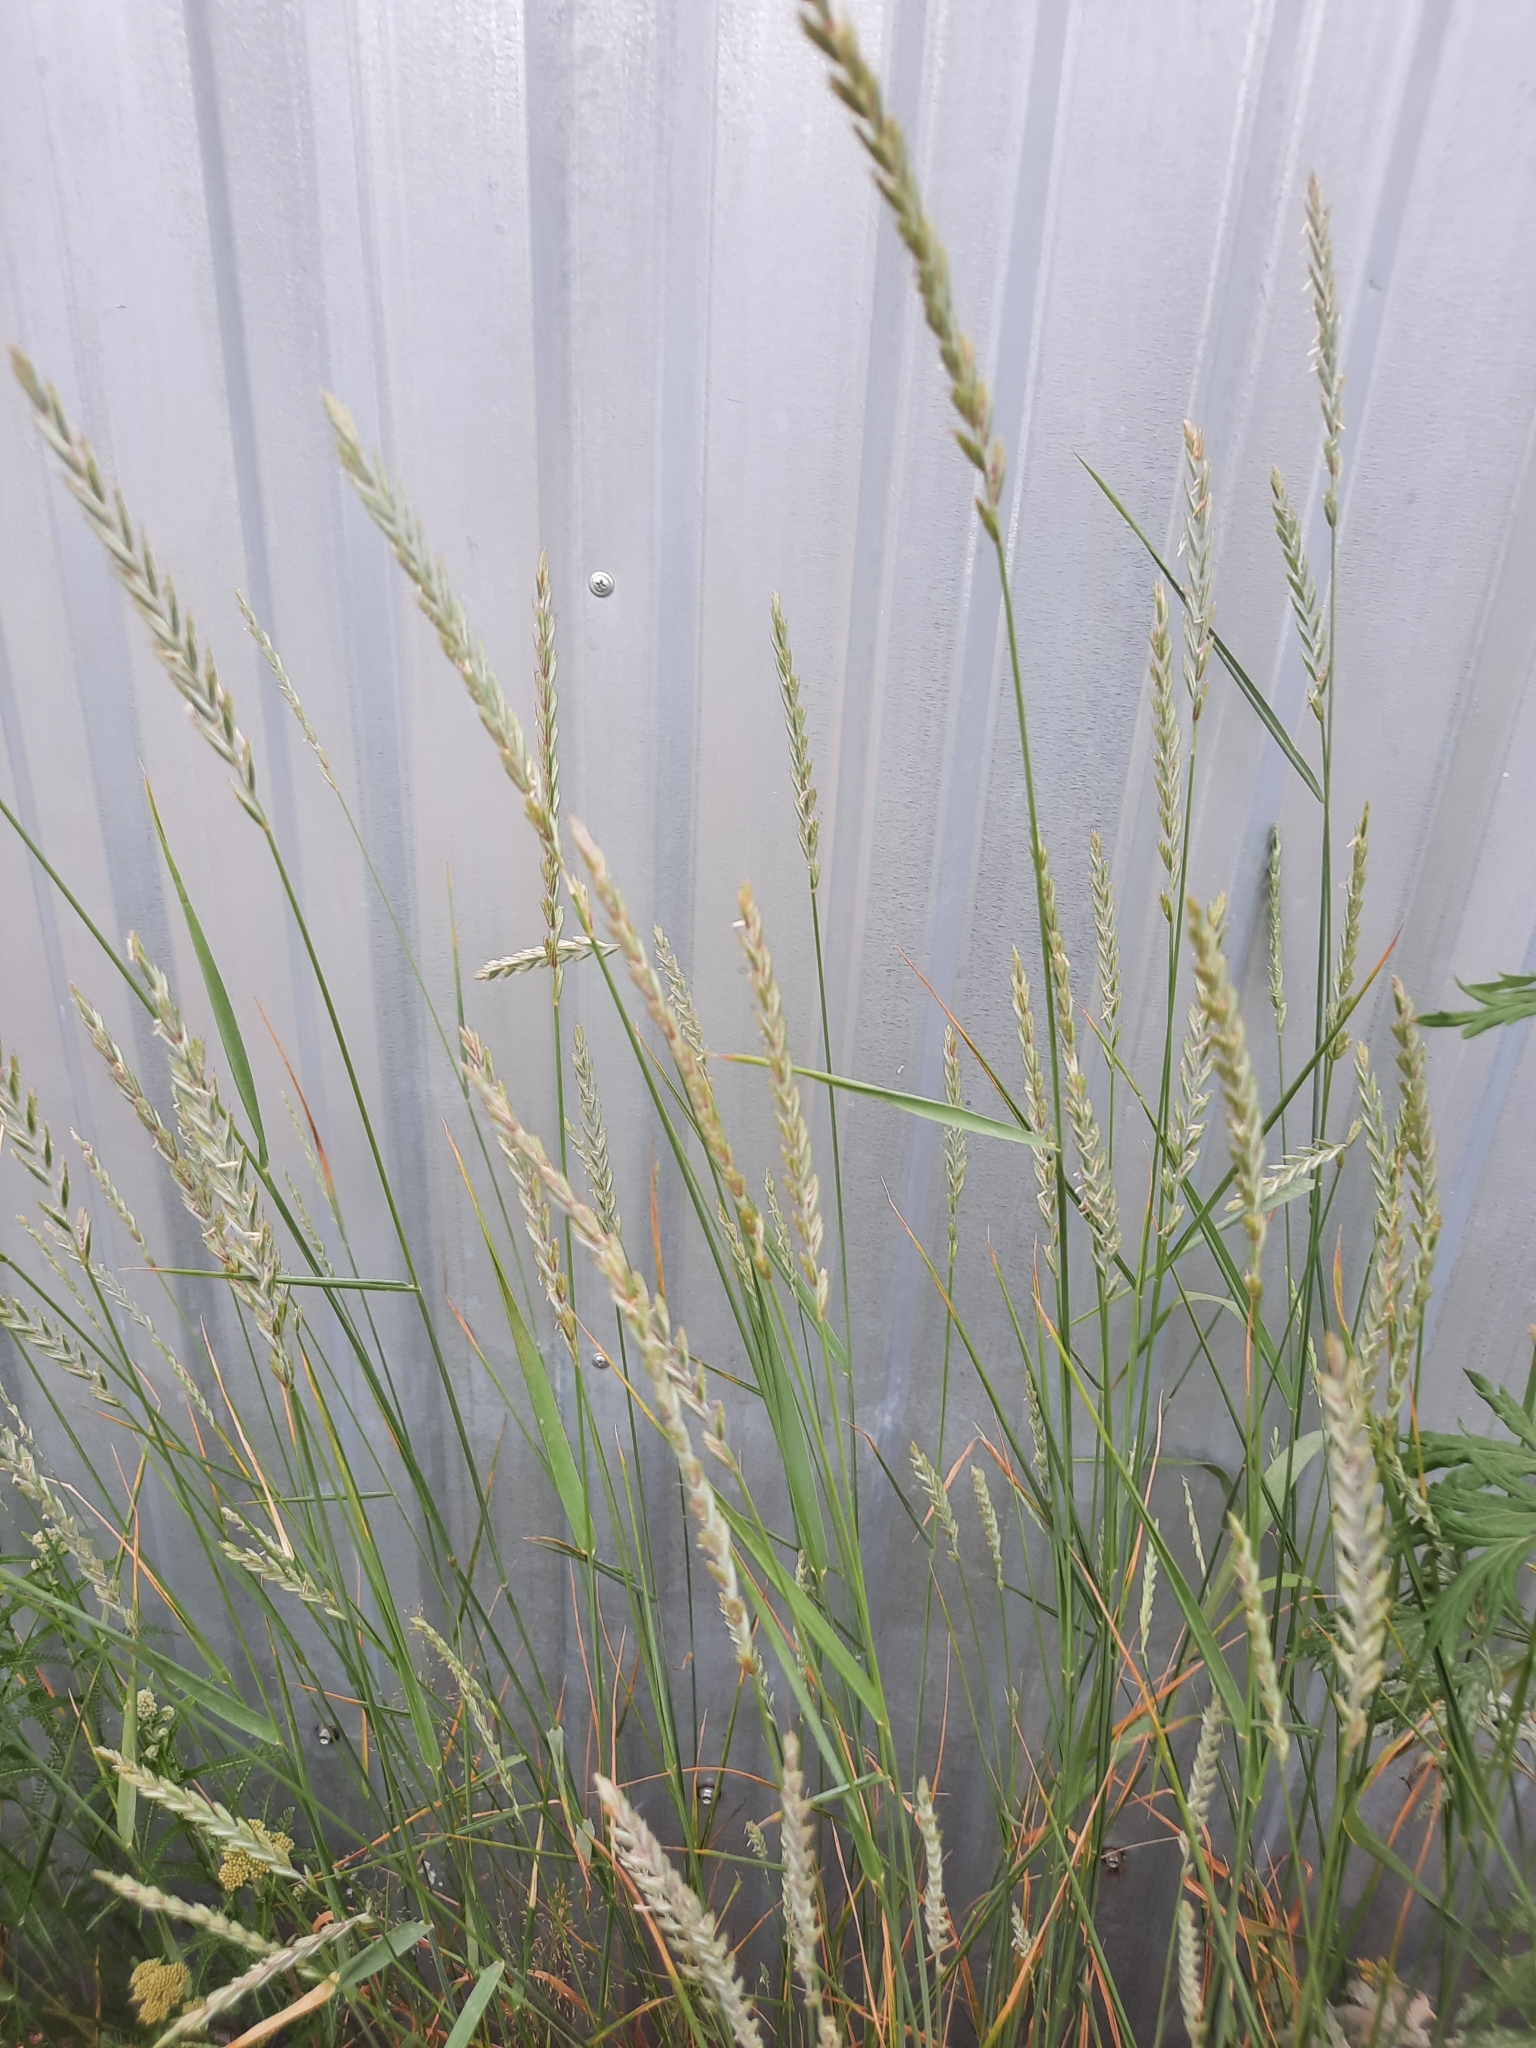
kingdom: Plantae
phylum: Tracheophyta
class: Liliopsida
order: Poales
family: Poaceae
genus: Elymus
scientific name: Elymus repens
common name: Quackgrass
